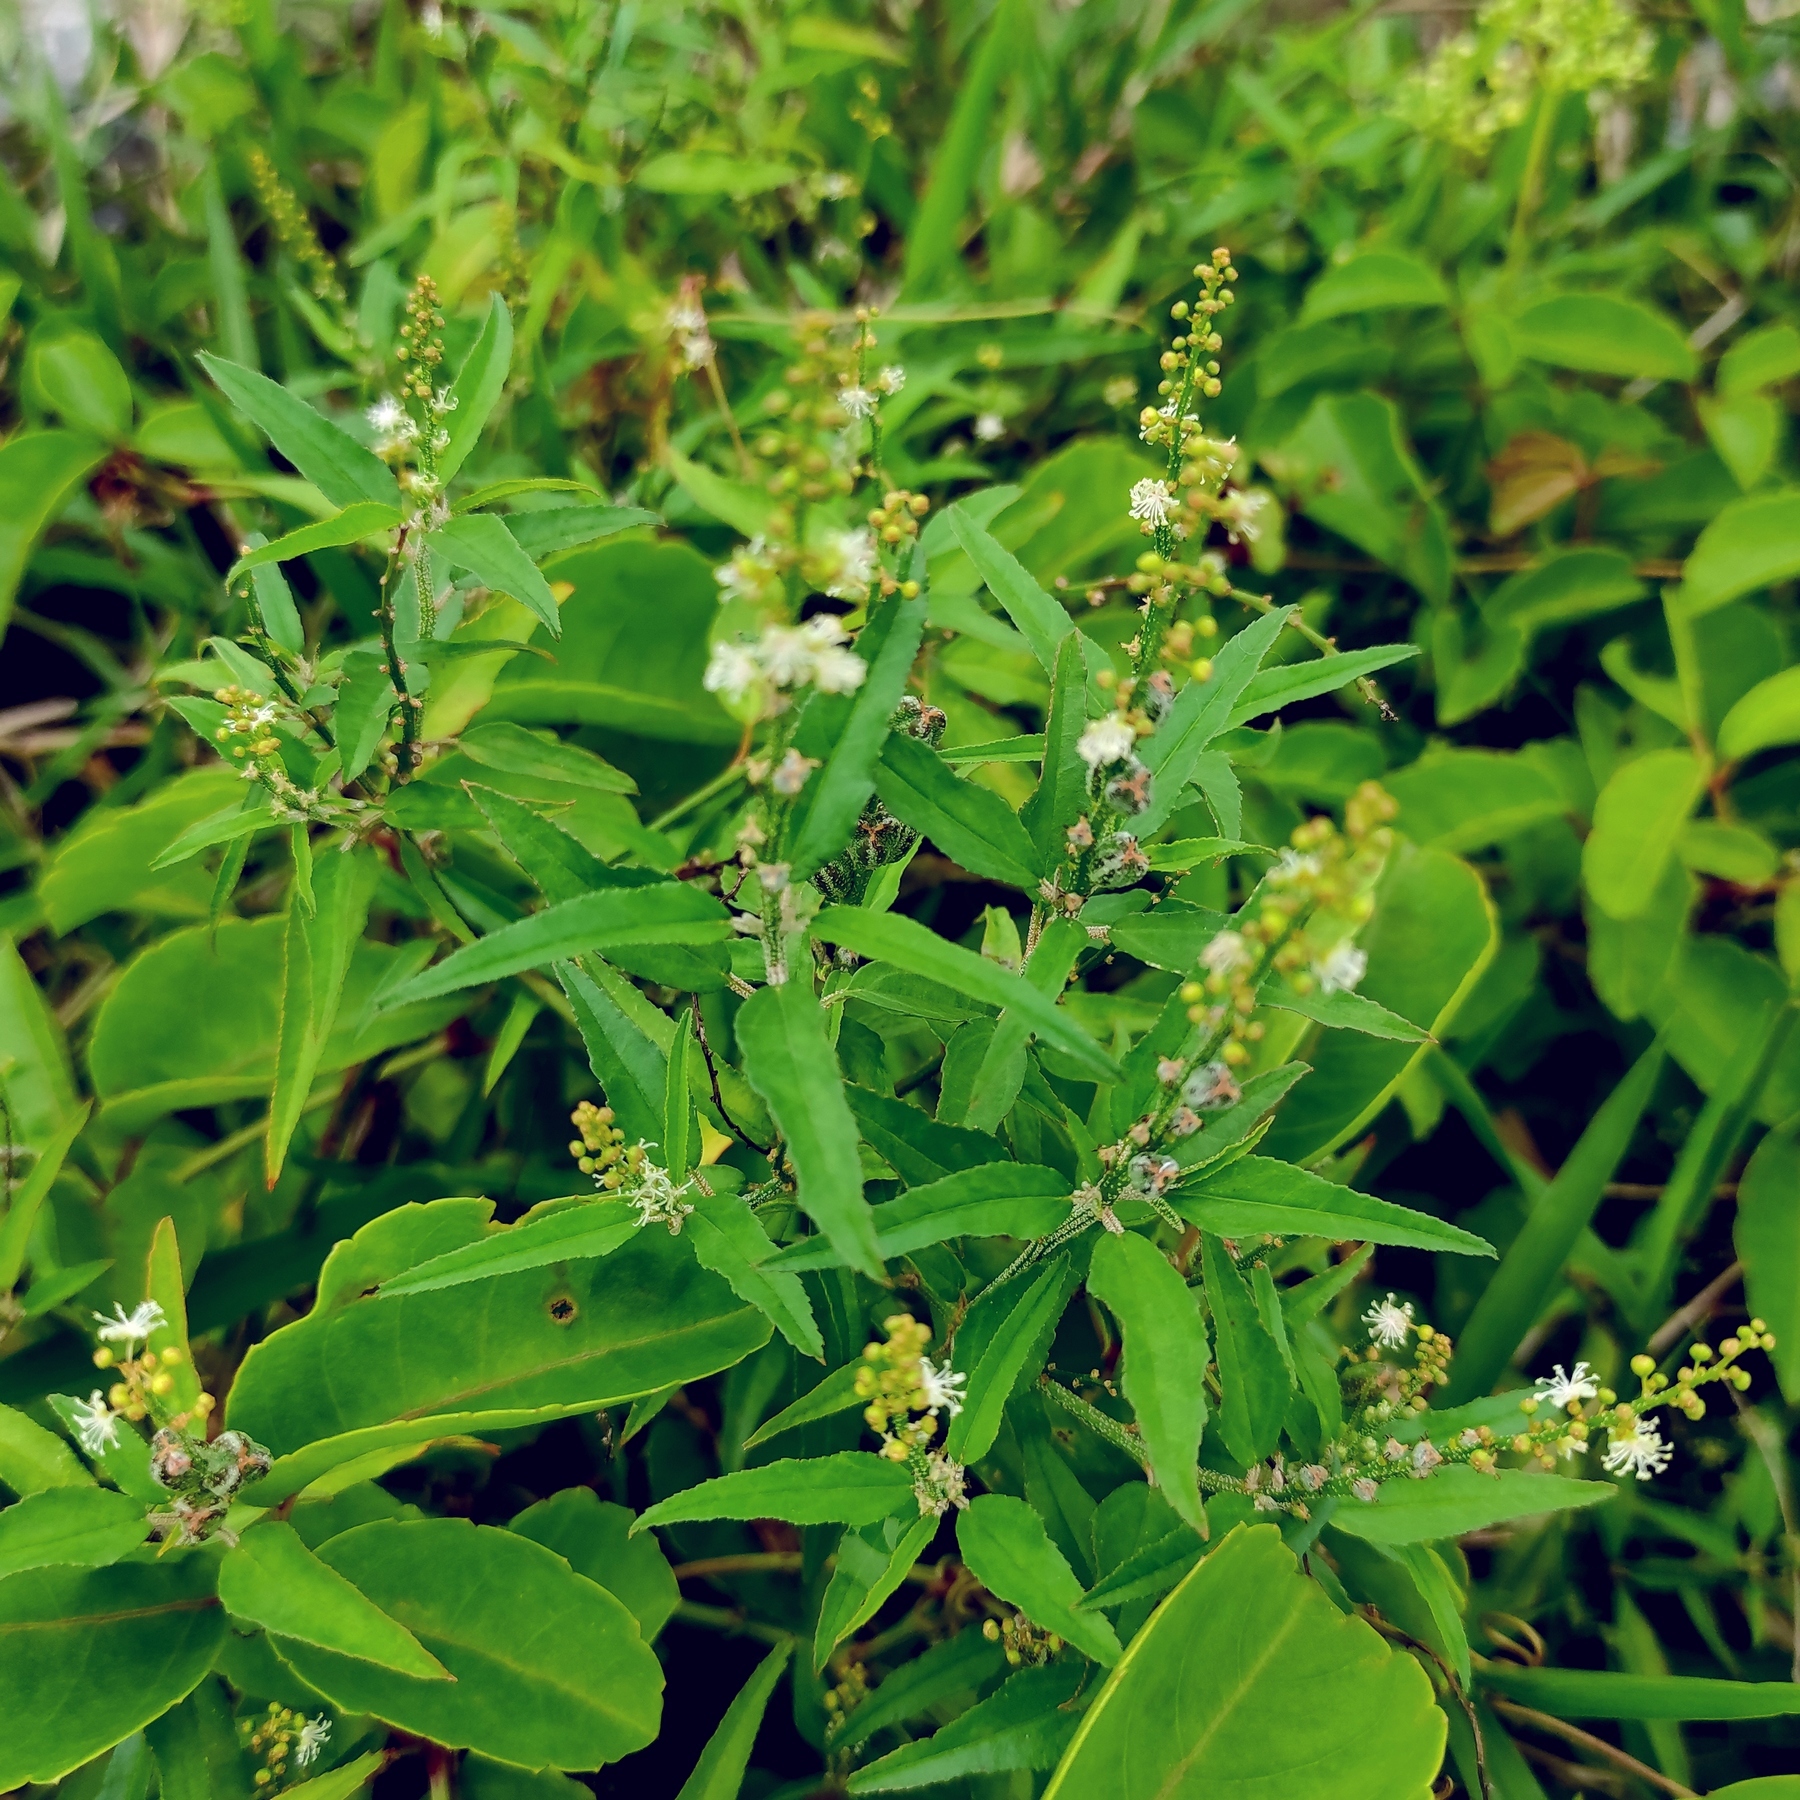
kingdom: Plantae
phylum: Tracheophyta
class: Magnoliopsida
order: Malpighiales
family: Euphorbiaceae
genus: Croton
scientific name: Croton bonplandianus
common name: Bonpland's croton
